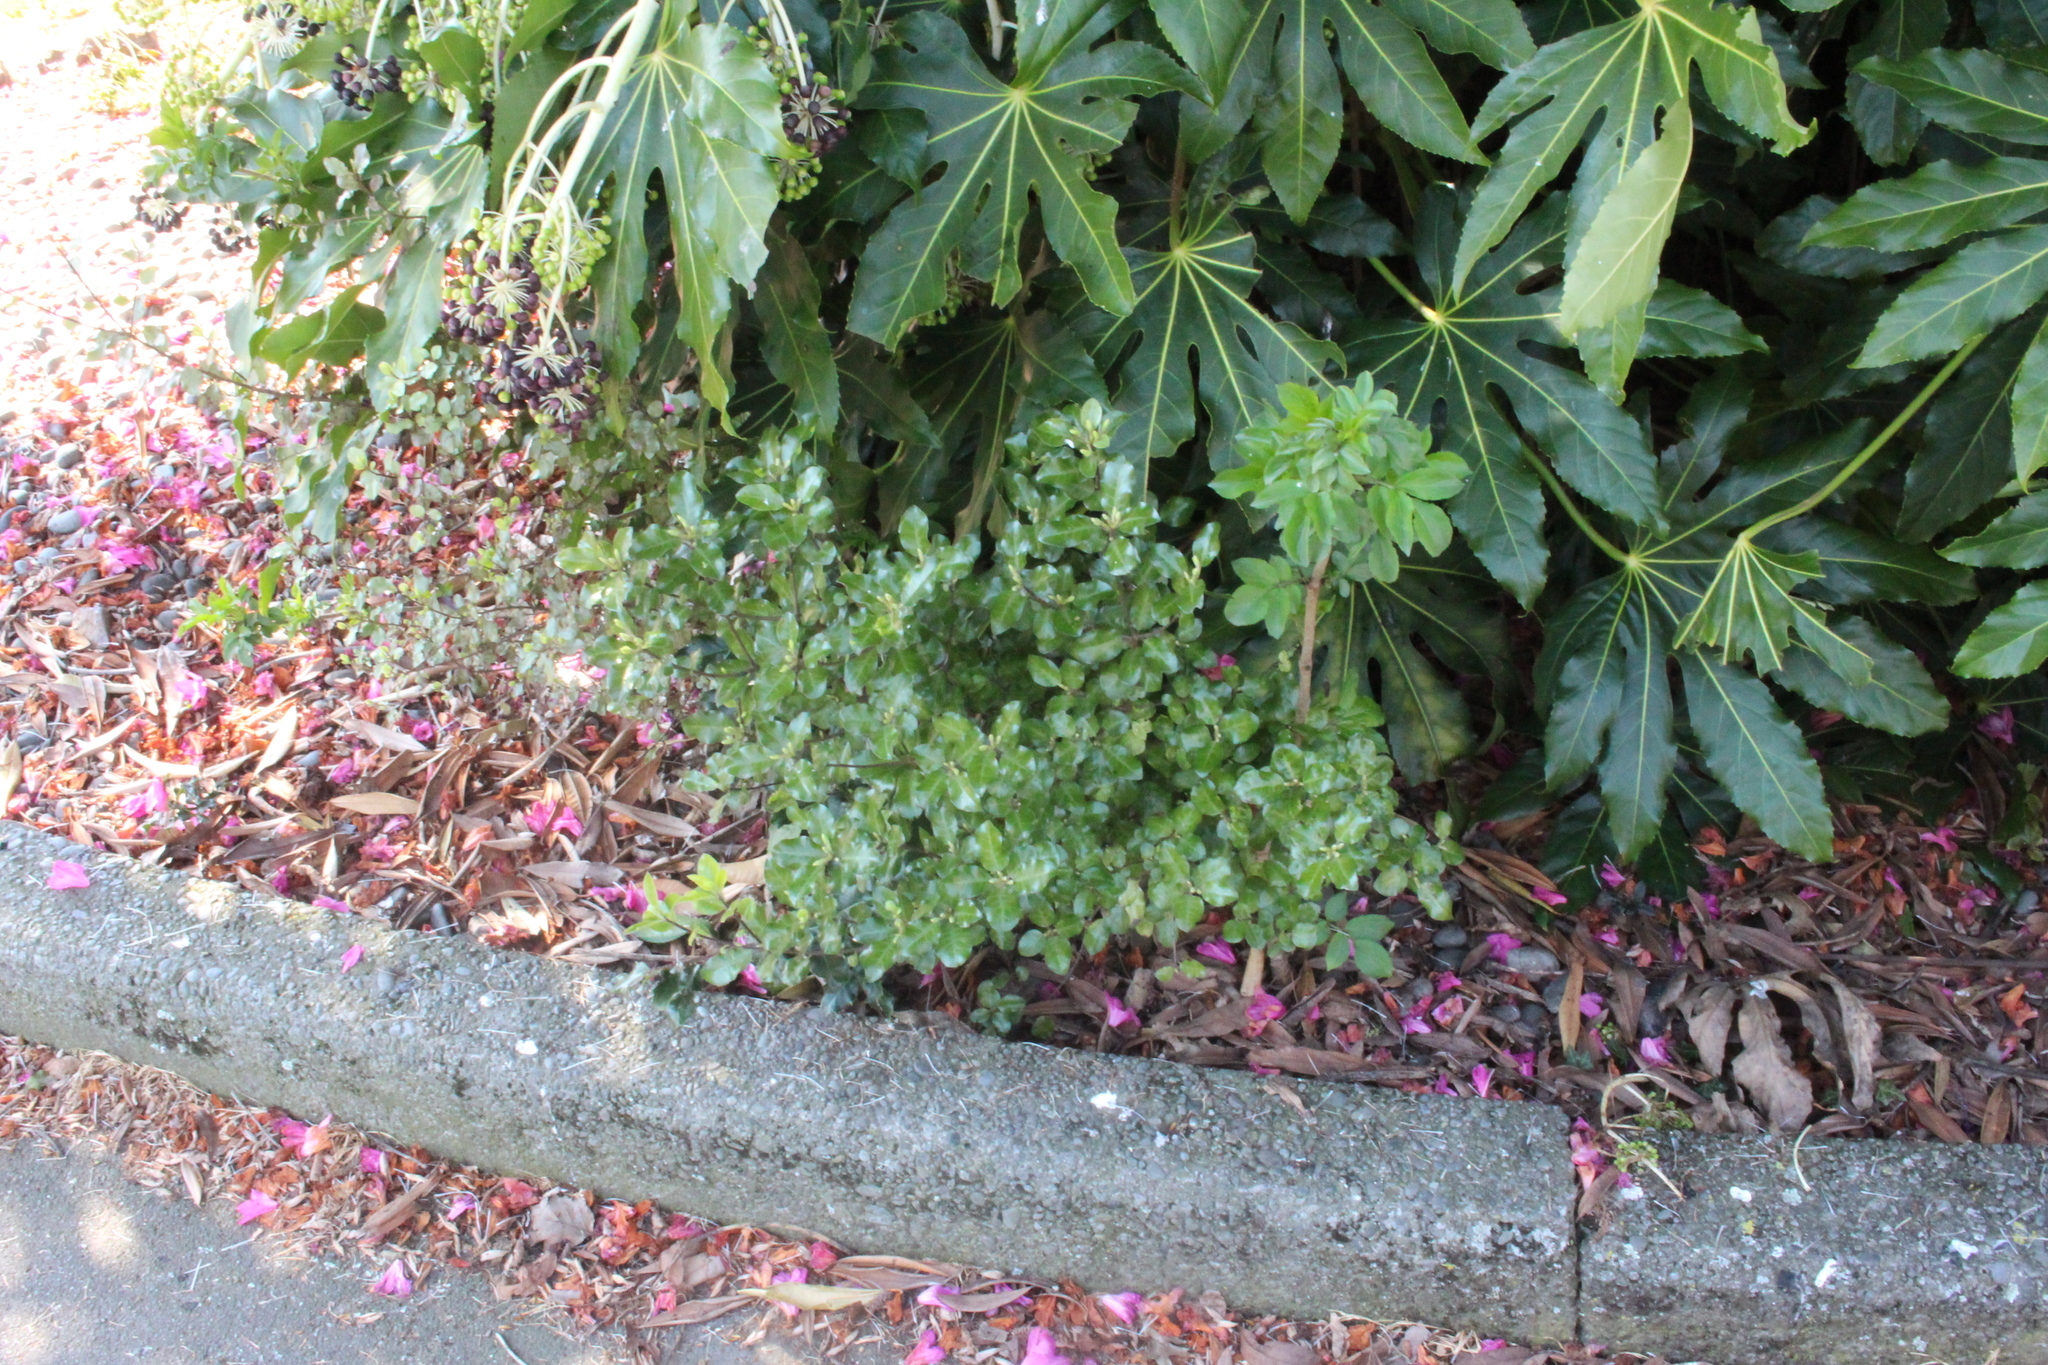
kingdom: Plantae
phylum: Tracheophyta
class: Magnoliopsida
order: Apiales
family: Pittosporaceae
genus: Pittosporum
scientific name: Pittosporum tenuifolium
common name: Kohuhu
